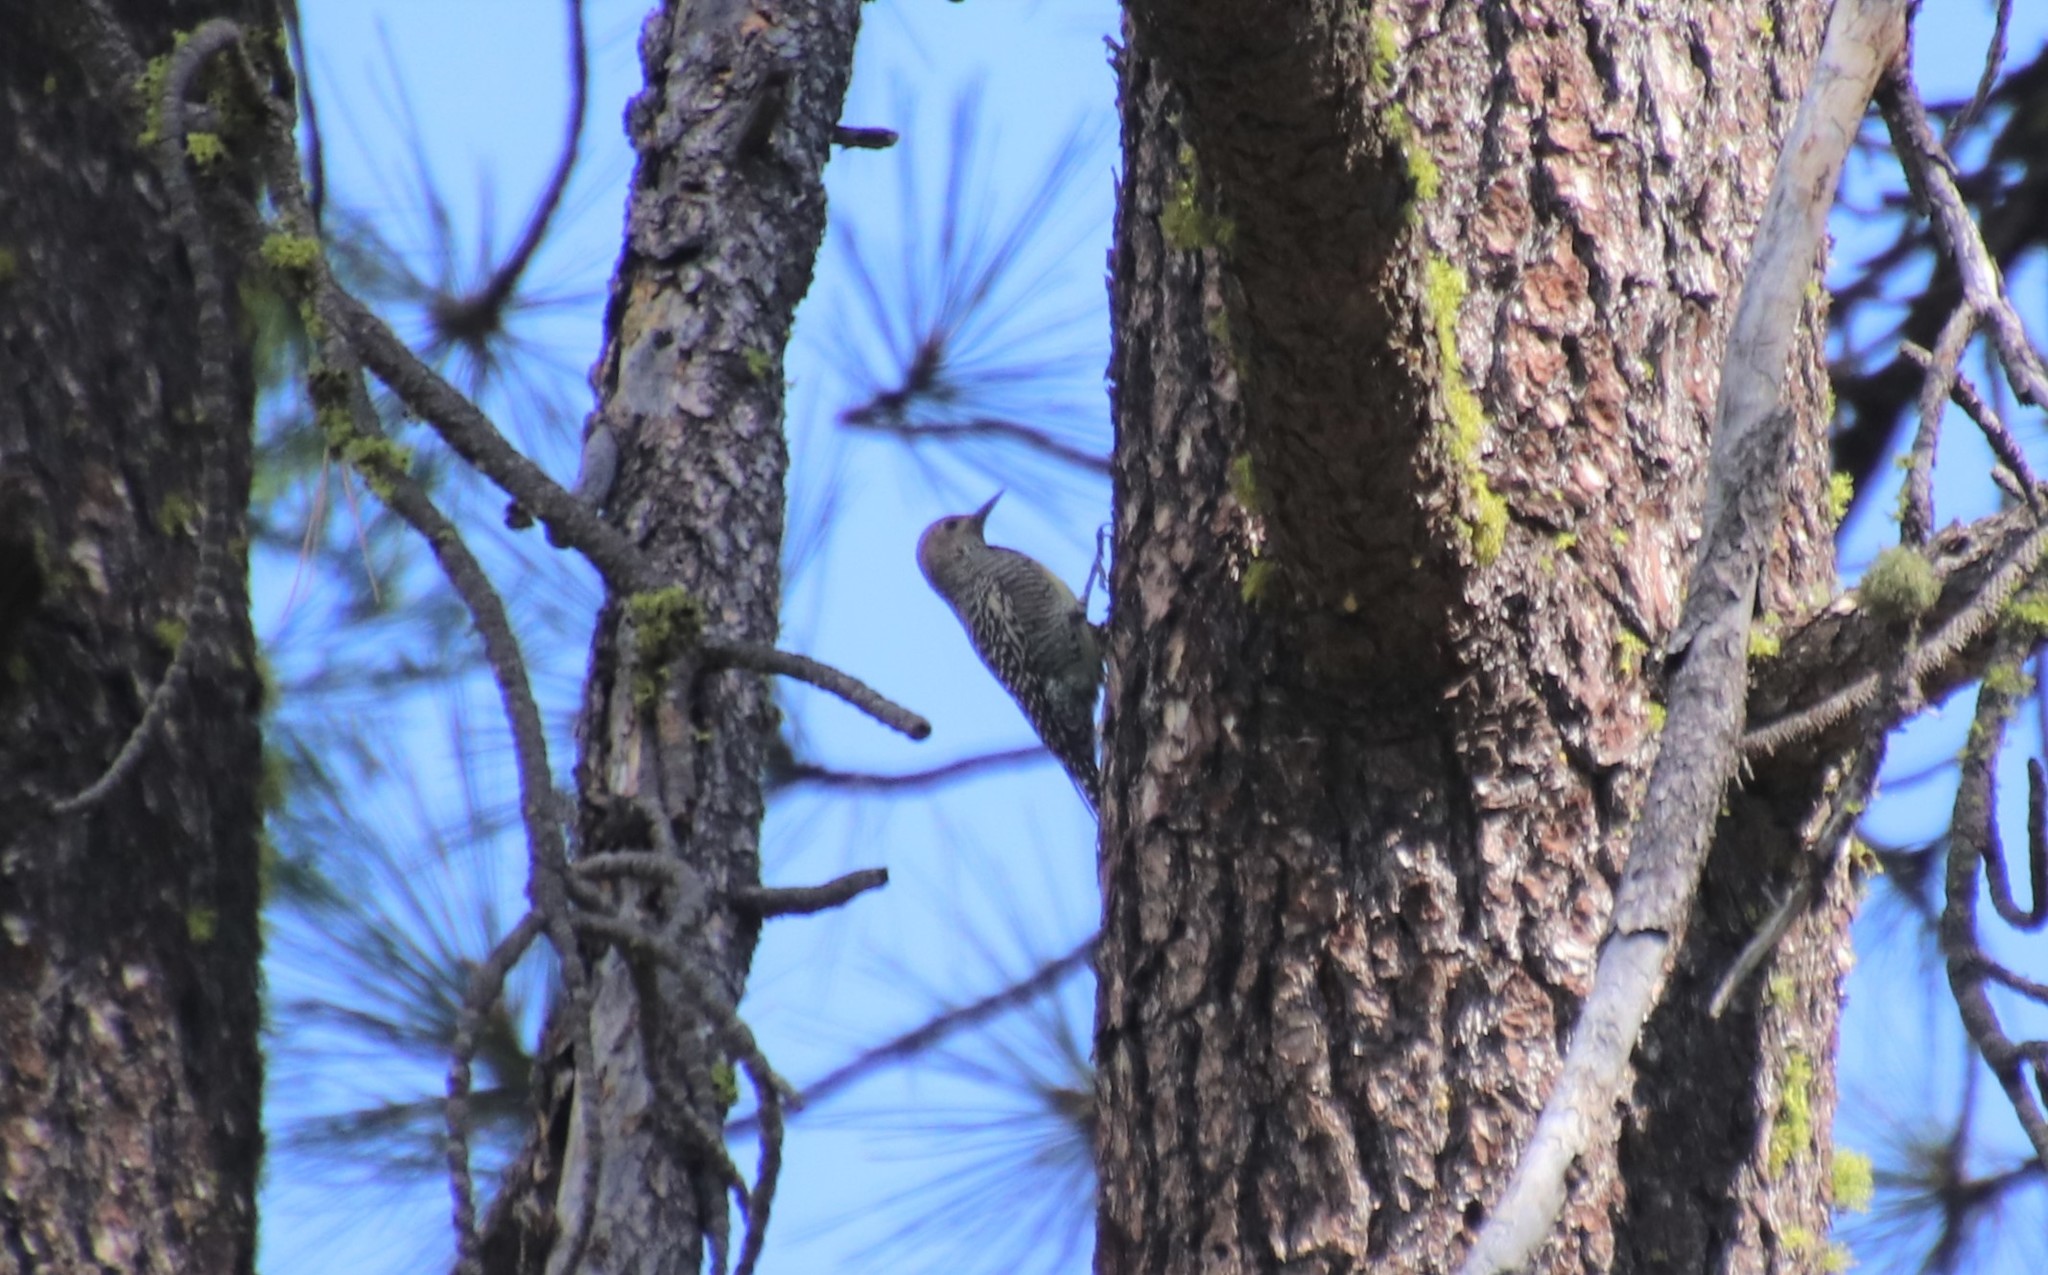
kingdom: Animalia
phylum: Chordata
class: Aves
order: Piciformes
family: Picidae
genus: Sphyrapicus
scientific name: Sphyrapicus thyroideus
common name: Williamson's sapsucker
